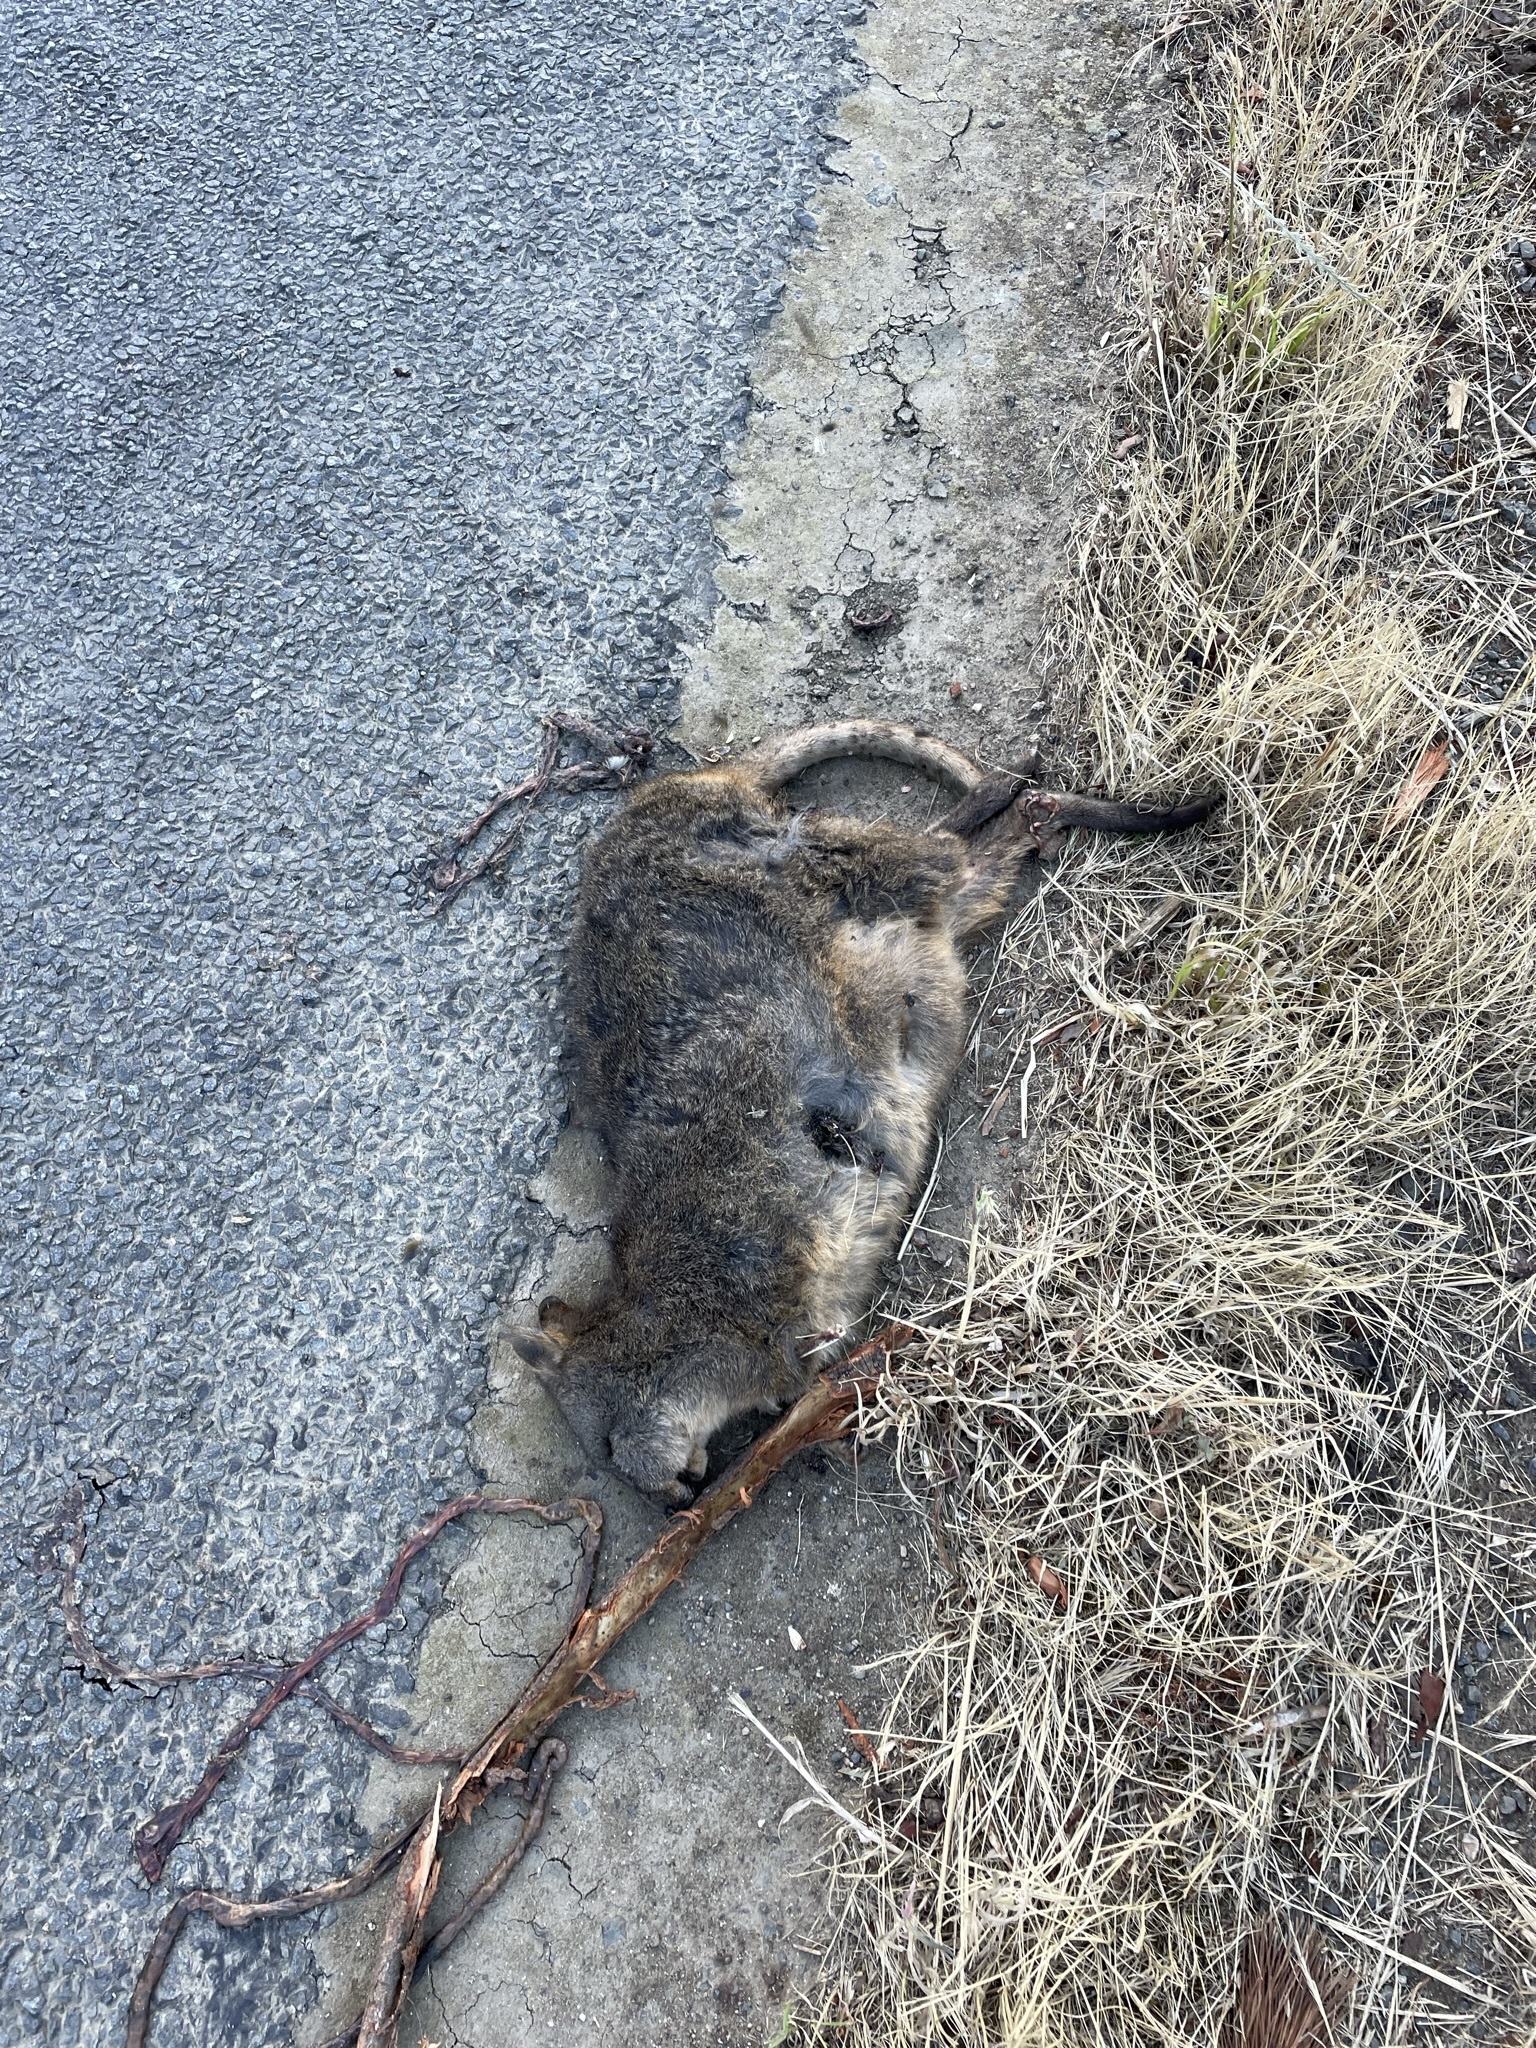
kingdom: Animalia
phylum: Chordata
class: Mammalia
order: Diprotodontia
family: Macropodidae
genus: Thylogale
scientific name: Thylogale billardierii
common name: Tasmanian pademelon
